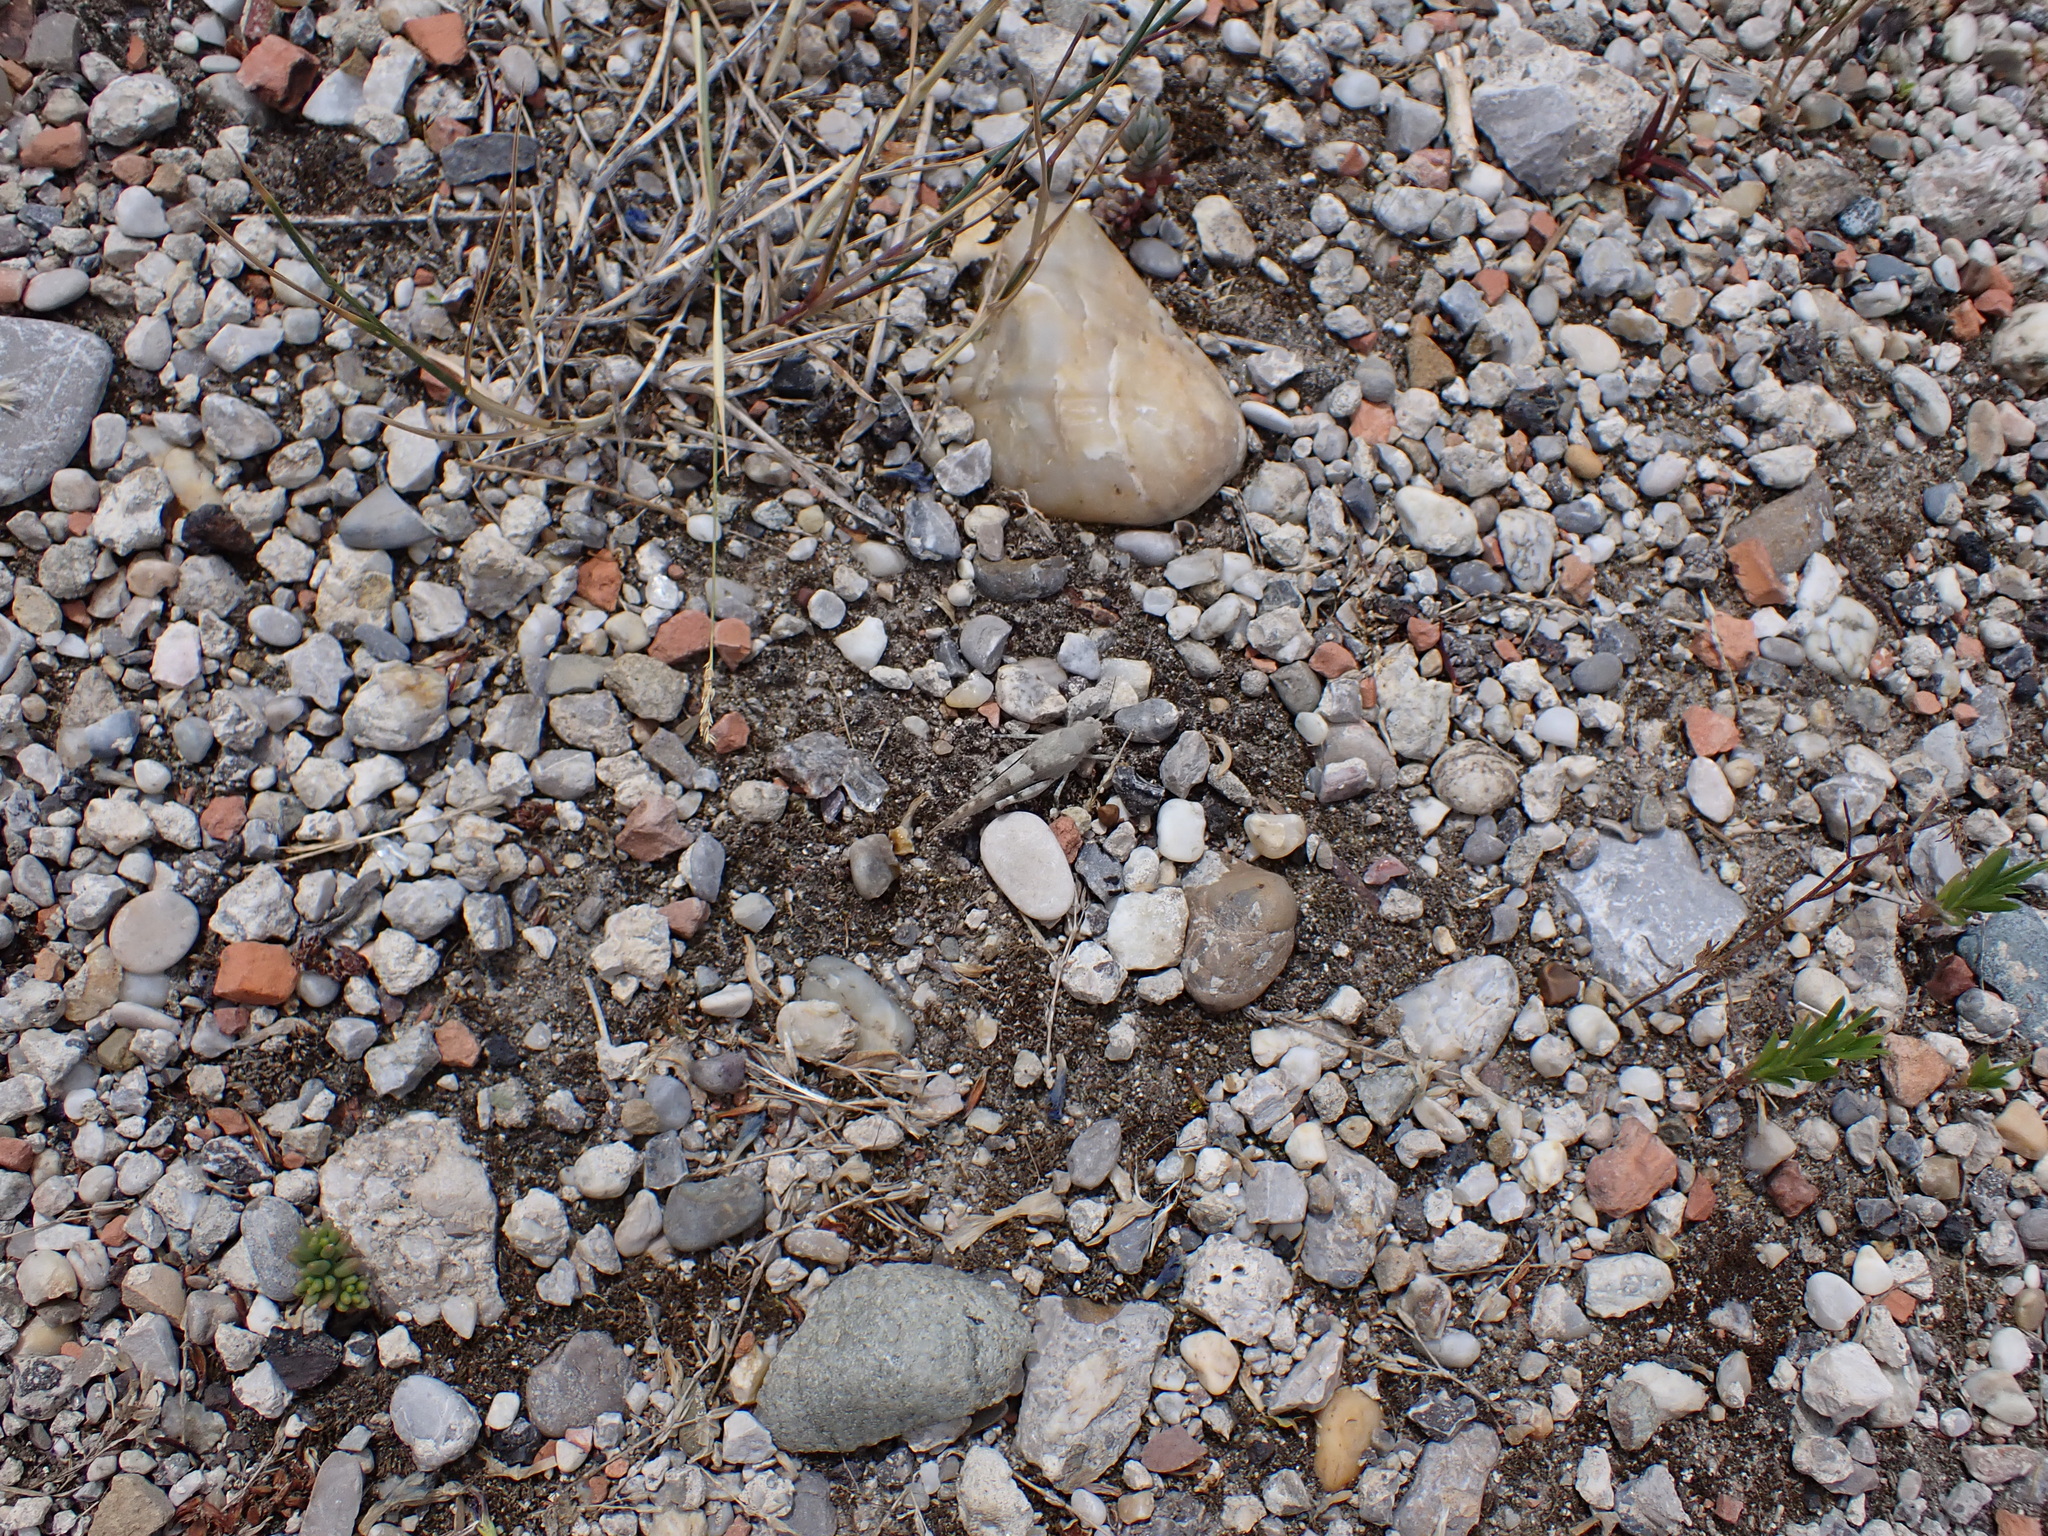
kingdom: Animalia
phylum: Arthropoda
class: Insecta
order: Orthoptera
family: Acrididae
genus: Sphingonotus
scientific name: Sphingonotus caerulans
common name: Blue-winged locust
